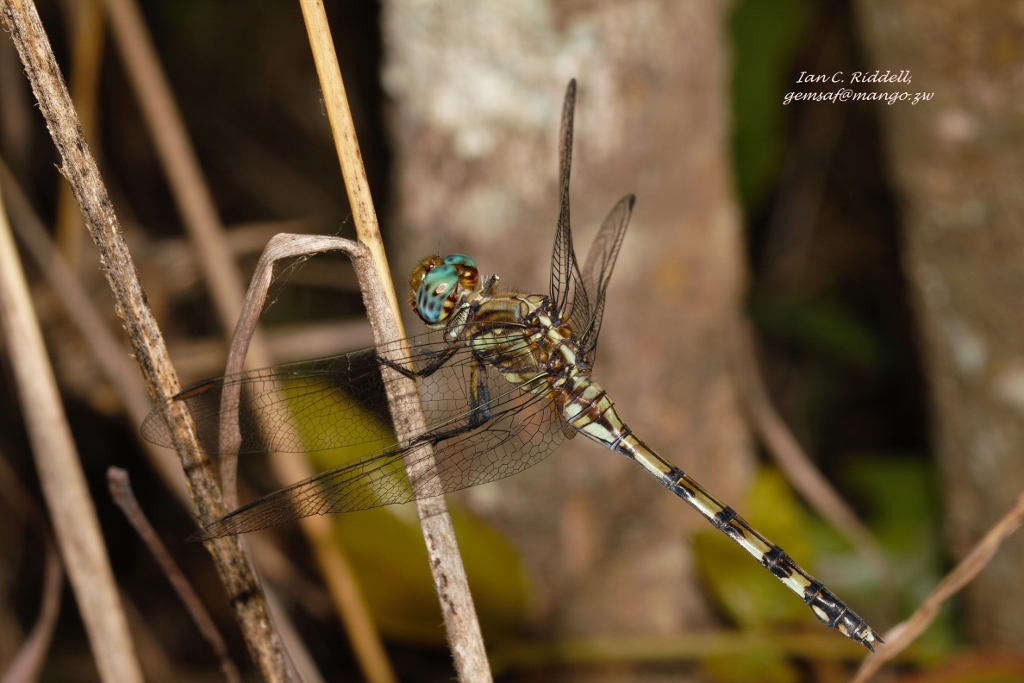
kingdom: Animalia
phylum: Arthropoda
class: Insecta
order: Odonata
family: Libellulidae
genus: Orthetrum
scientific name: Orthetrum brachiale
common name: Banded skimmer
